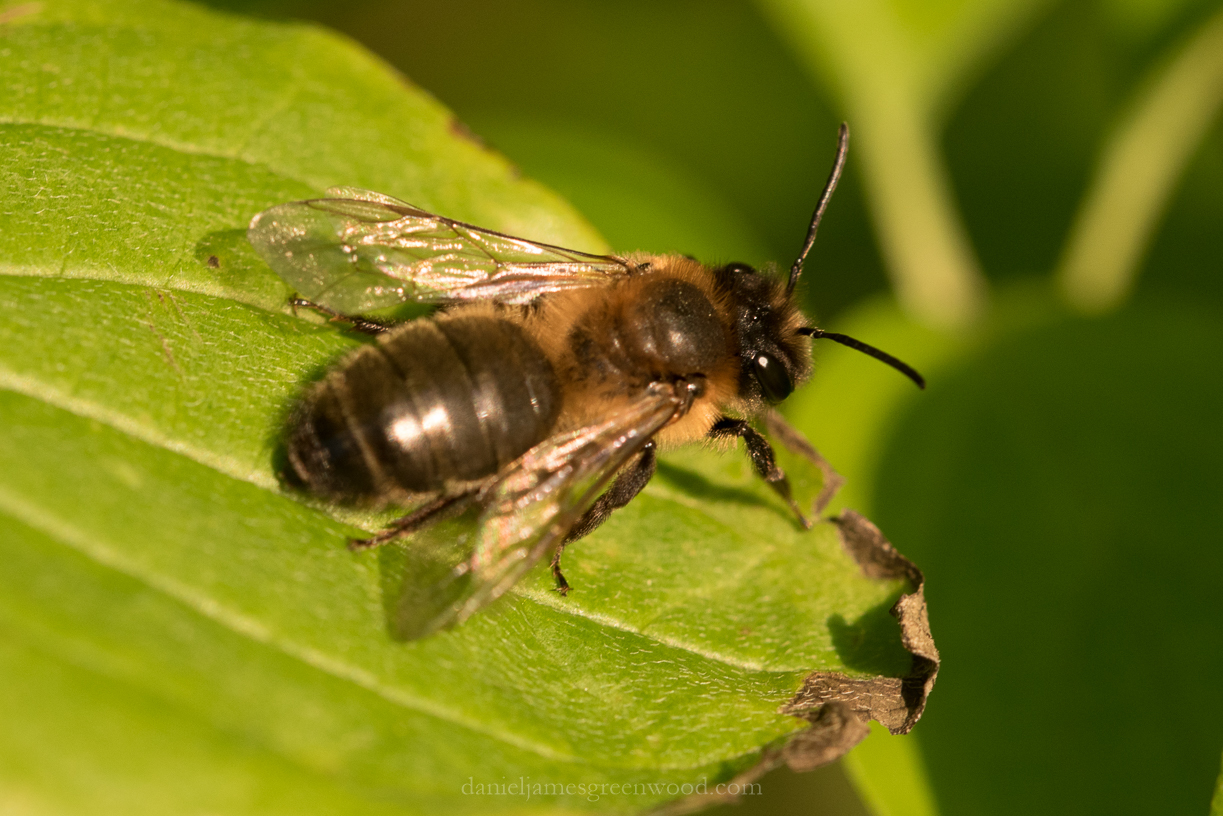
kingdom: Animalia
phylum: Arthropoda
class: Insecta
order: Hymenoptera
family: Andrenidae
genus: Andrena
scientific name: Andrena nigroaenea
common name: Buffish mining bee
